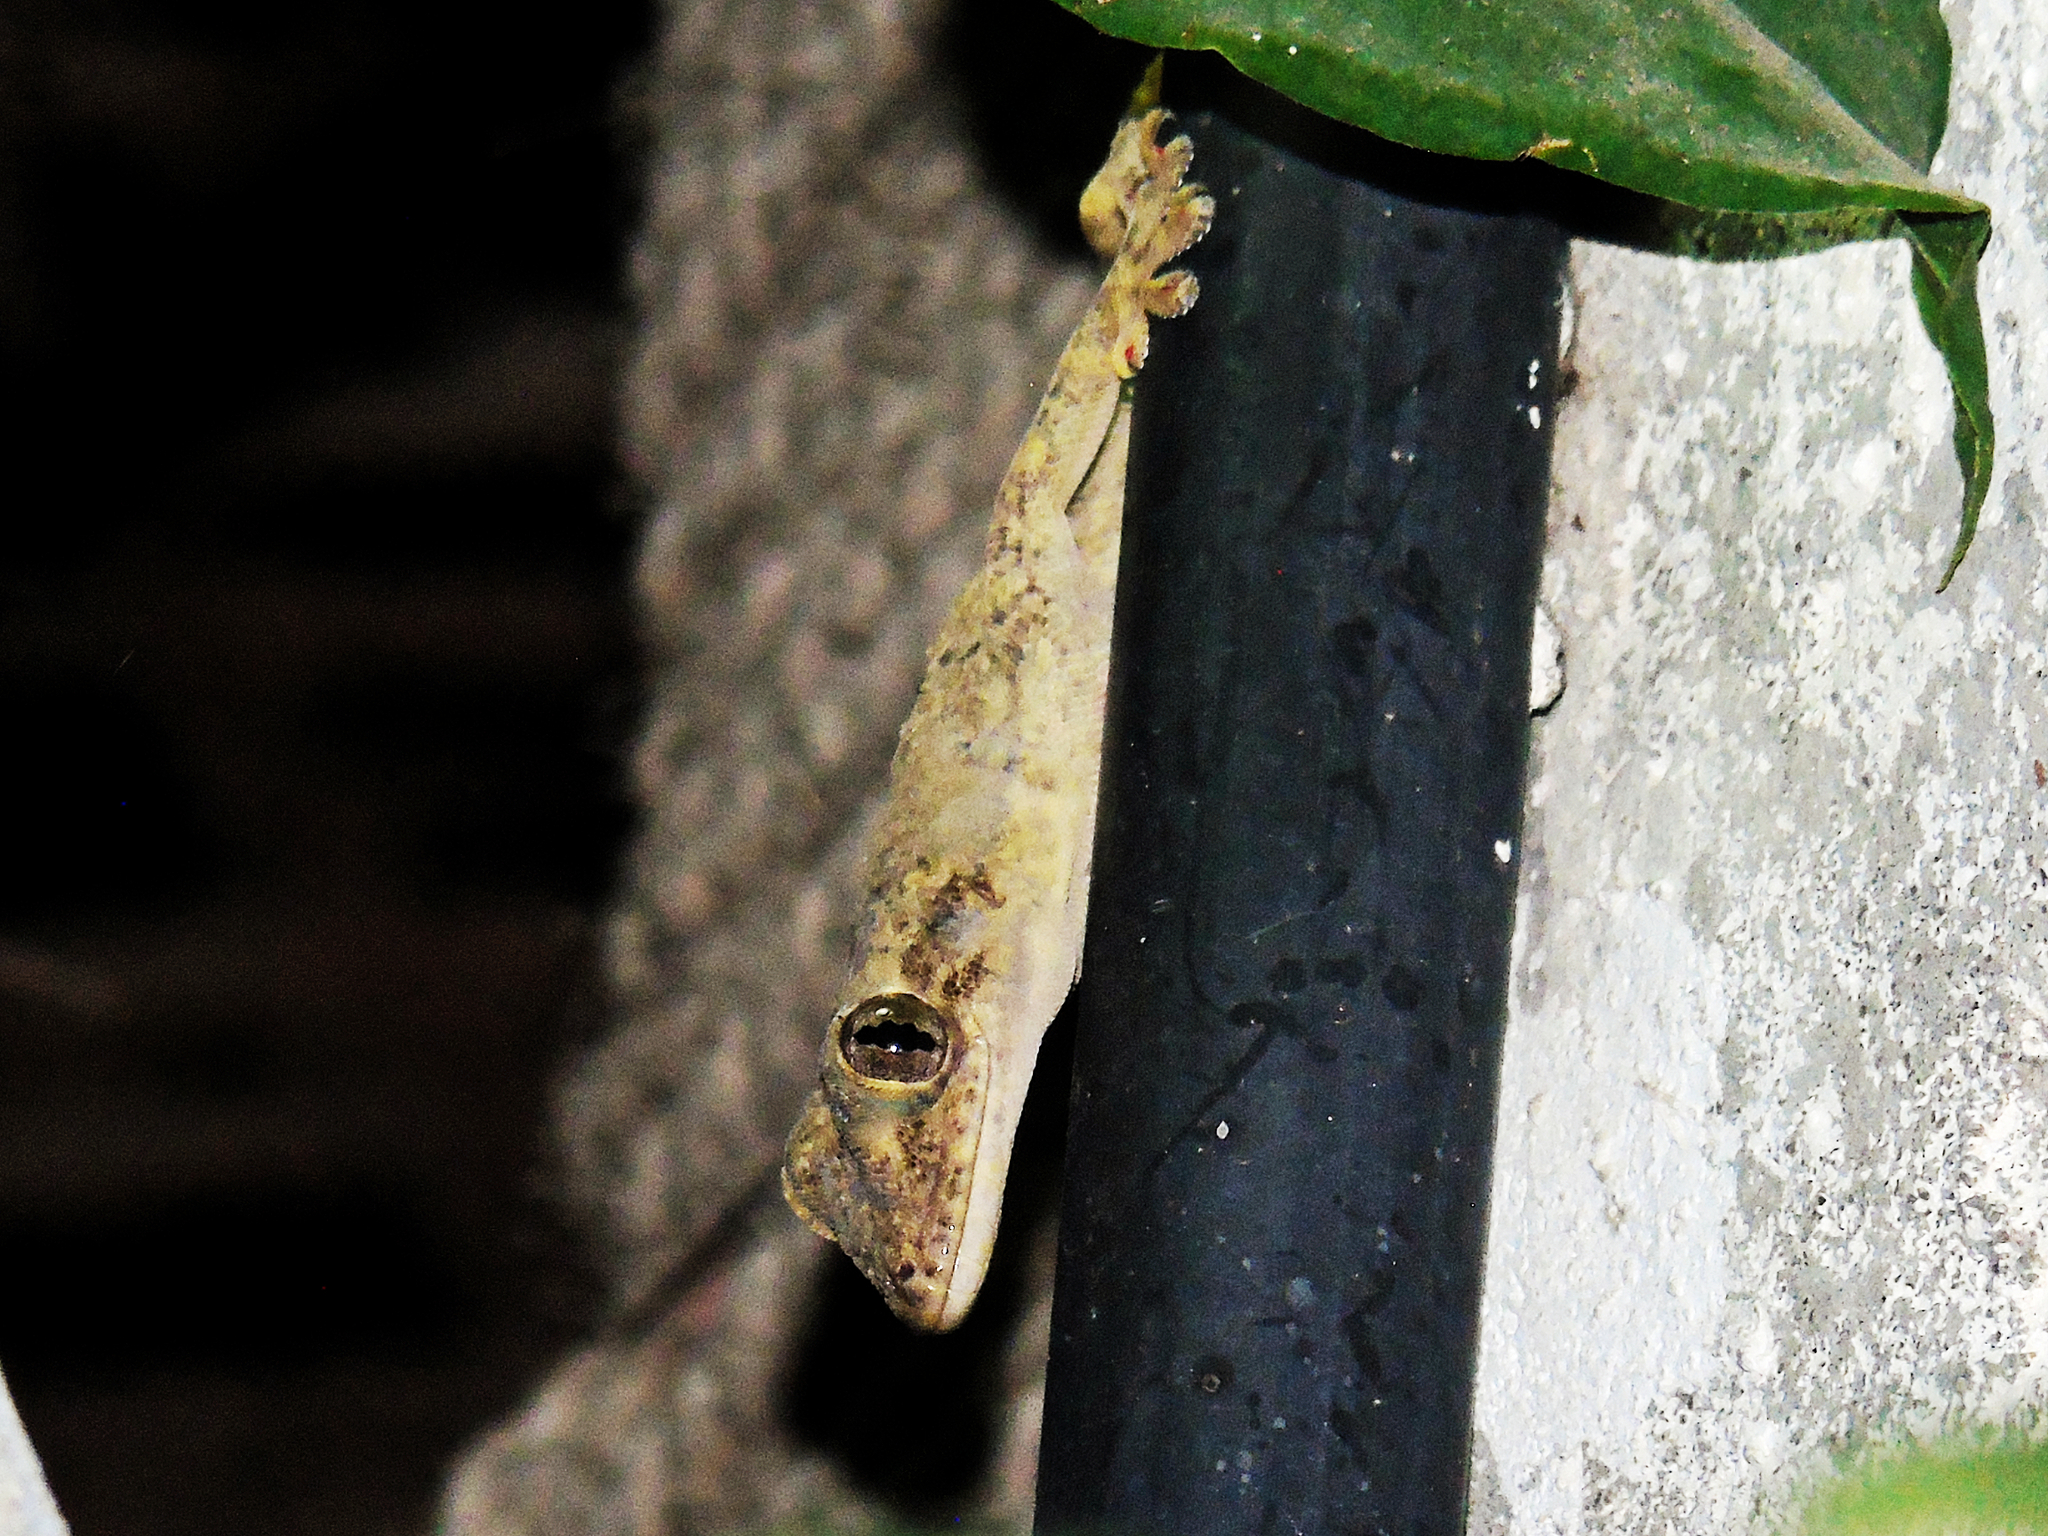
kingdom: Animalia
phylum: Chordata
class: Squamata
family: Gekkonidae
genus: Hemidactylus
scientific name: Hemidactylus mabouia
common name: House gecko
